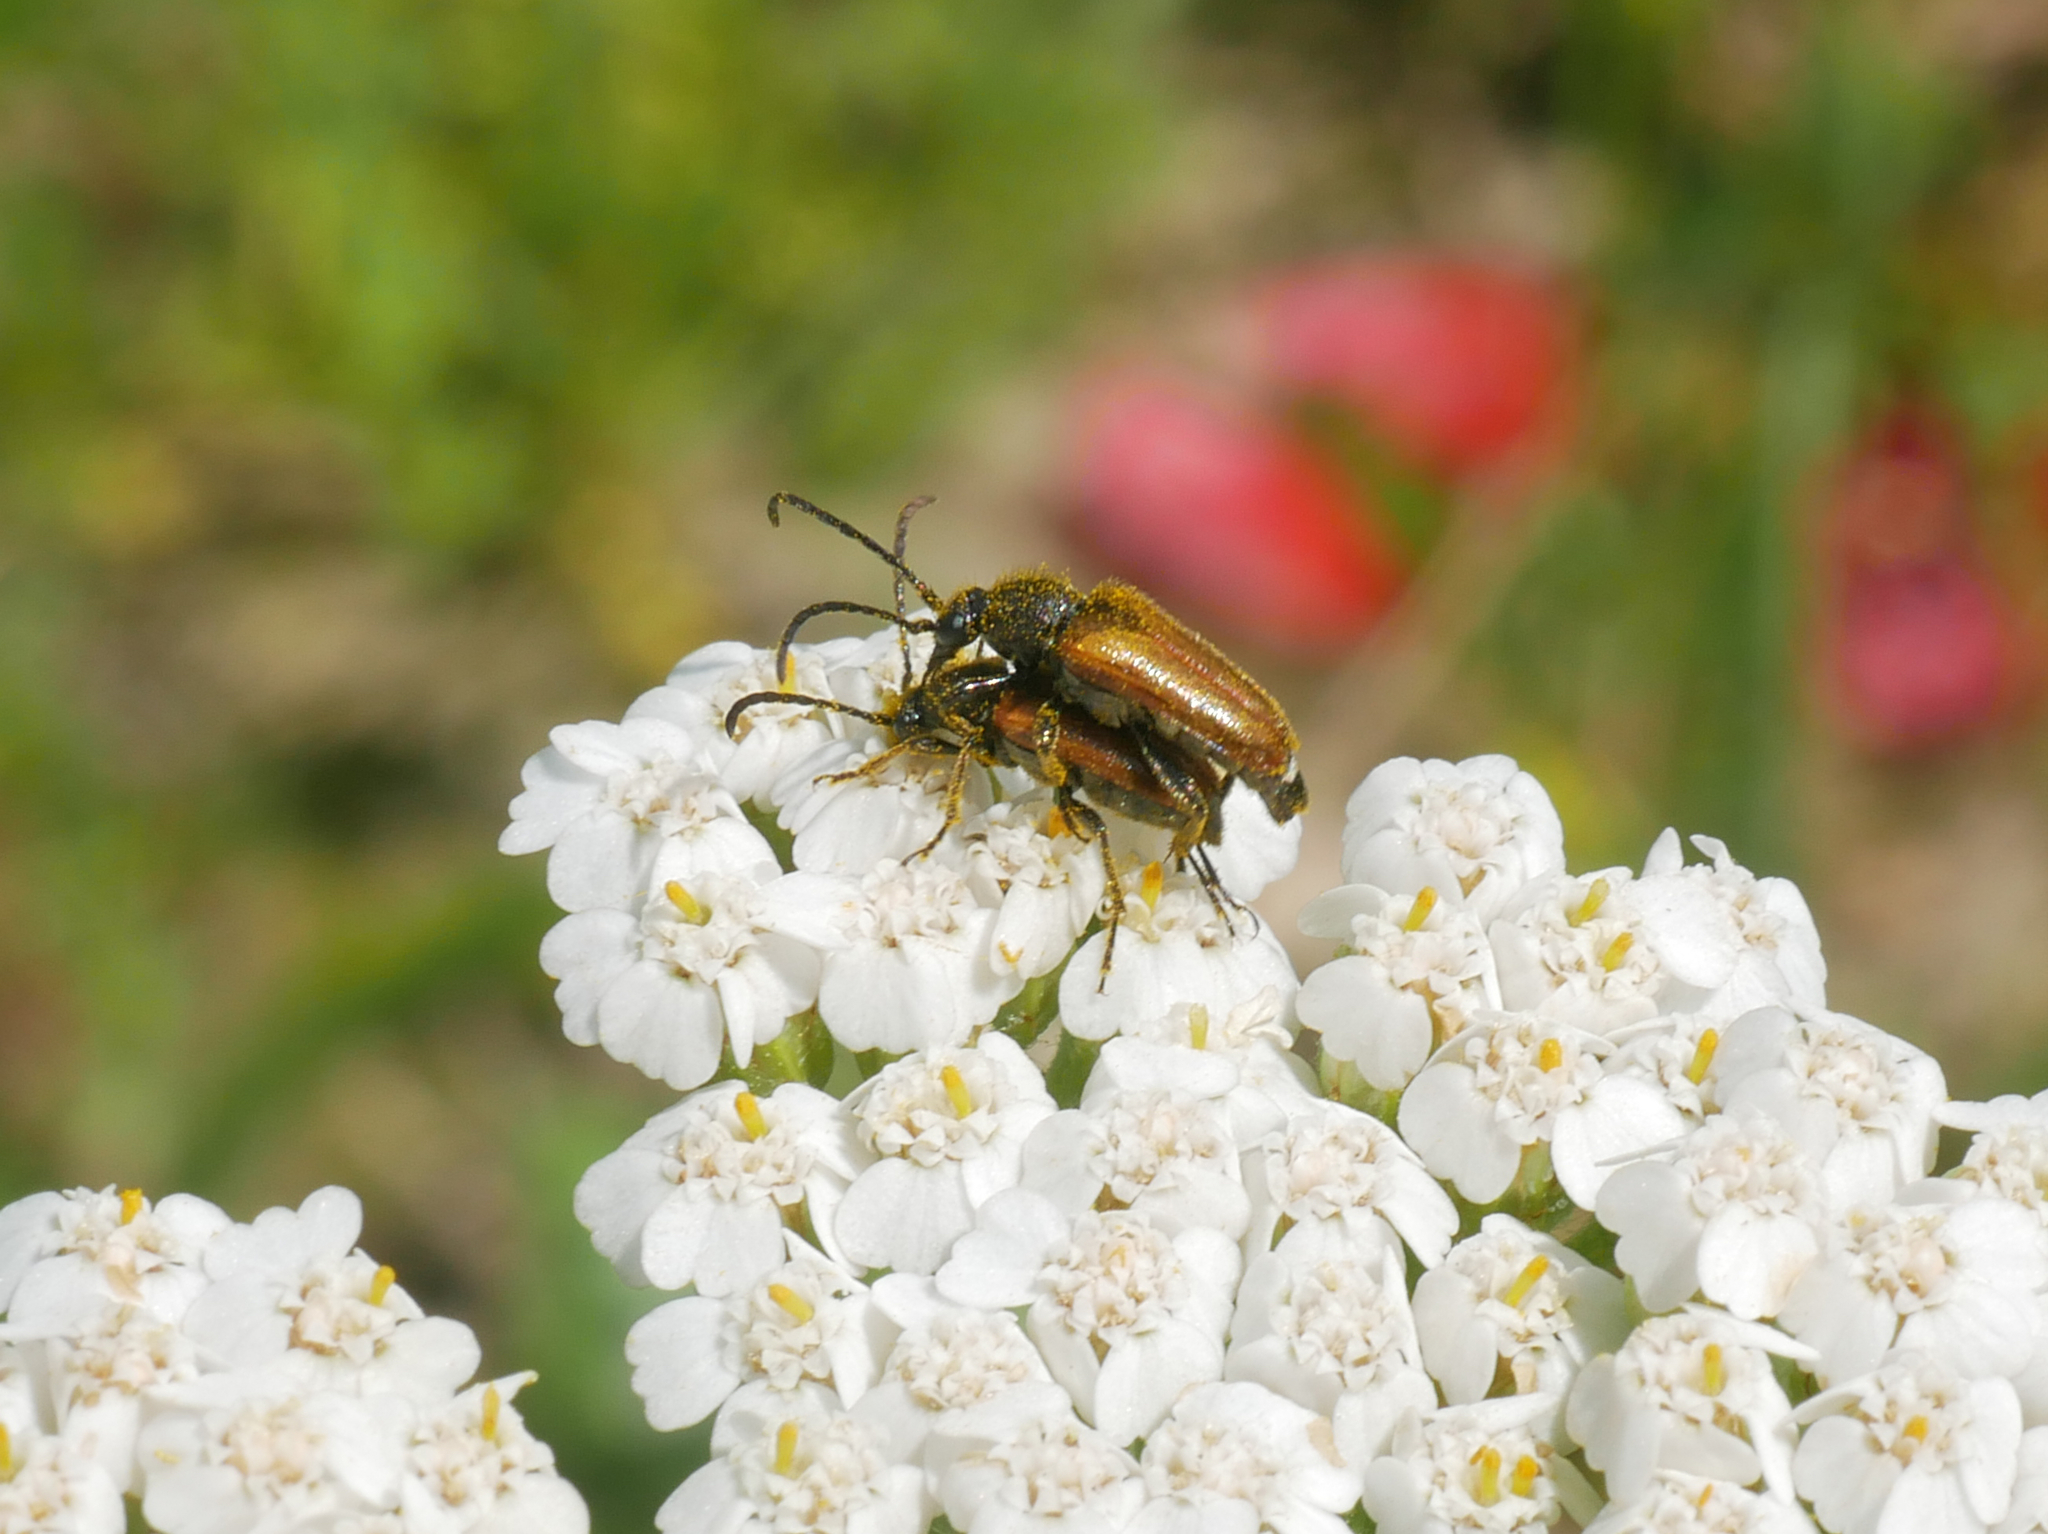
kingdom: Animalia
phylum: Arthropoda
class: Insecta
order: Coleoptera
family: Cerambycidae
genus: Pseudovadonia
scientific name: Pseudovadonia livida
